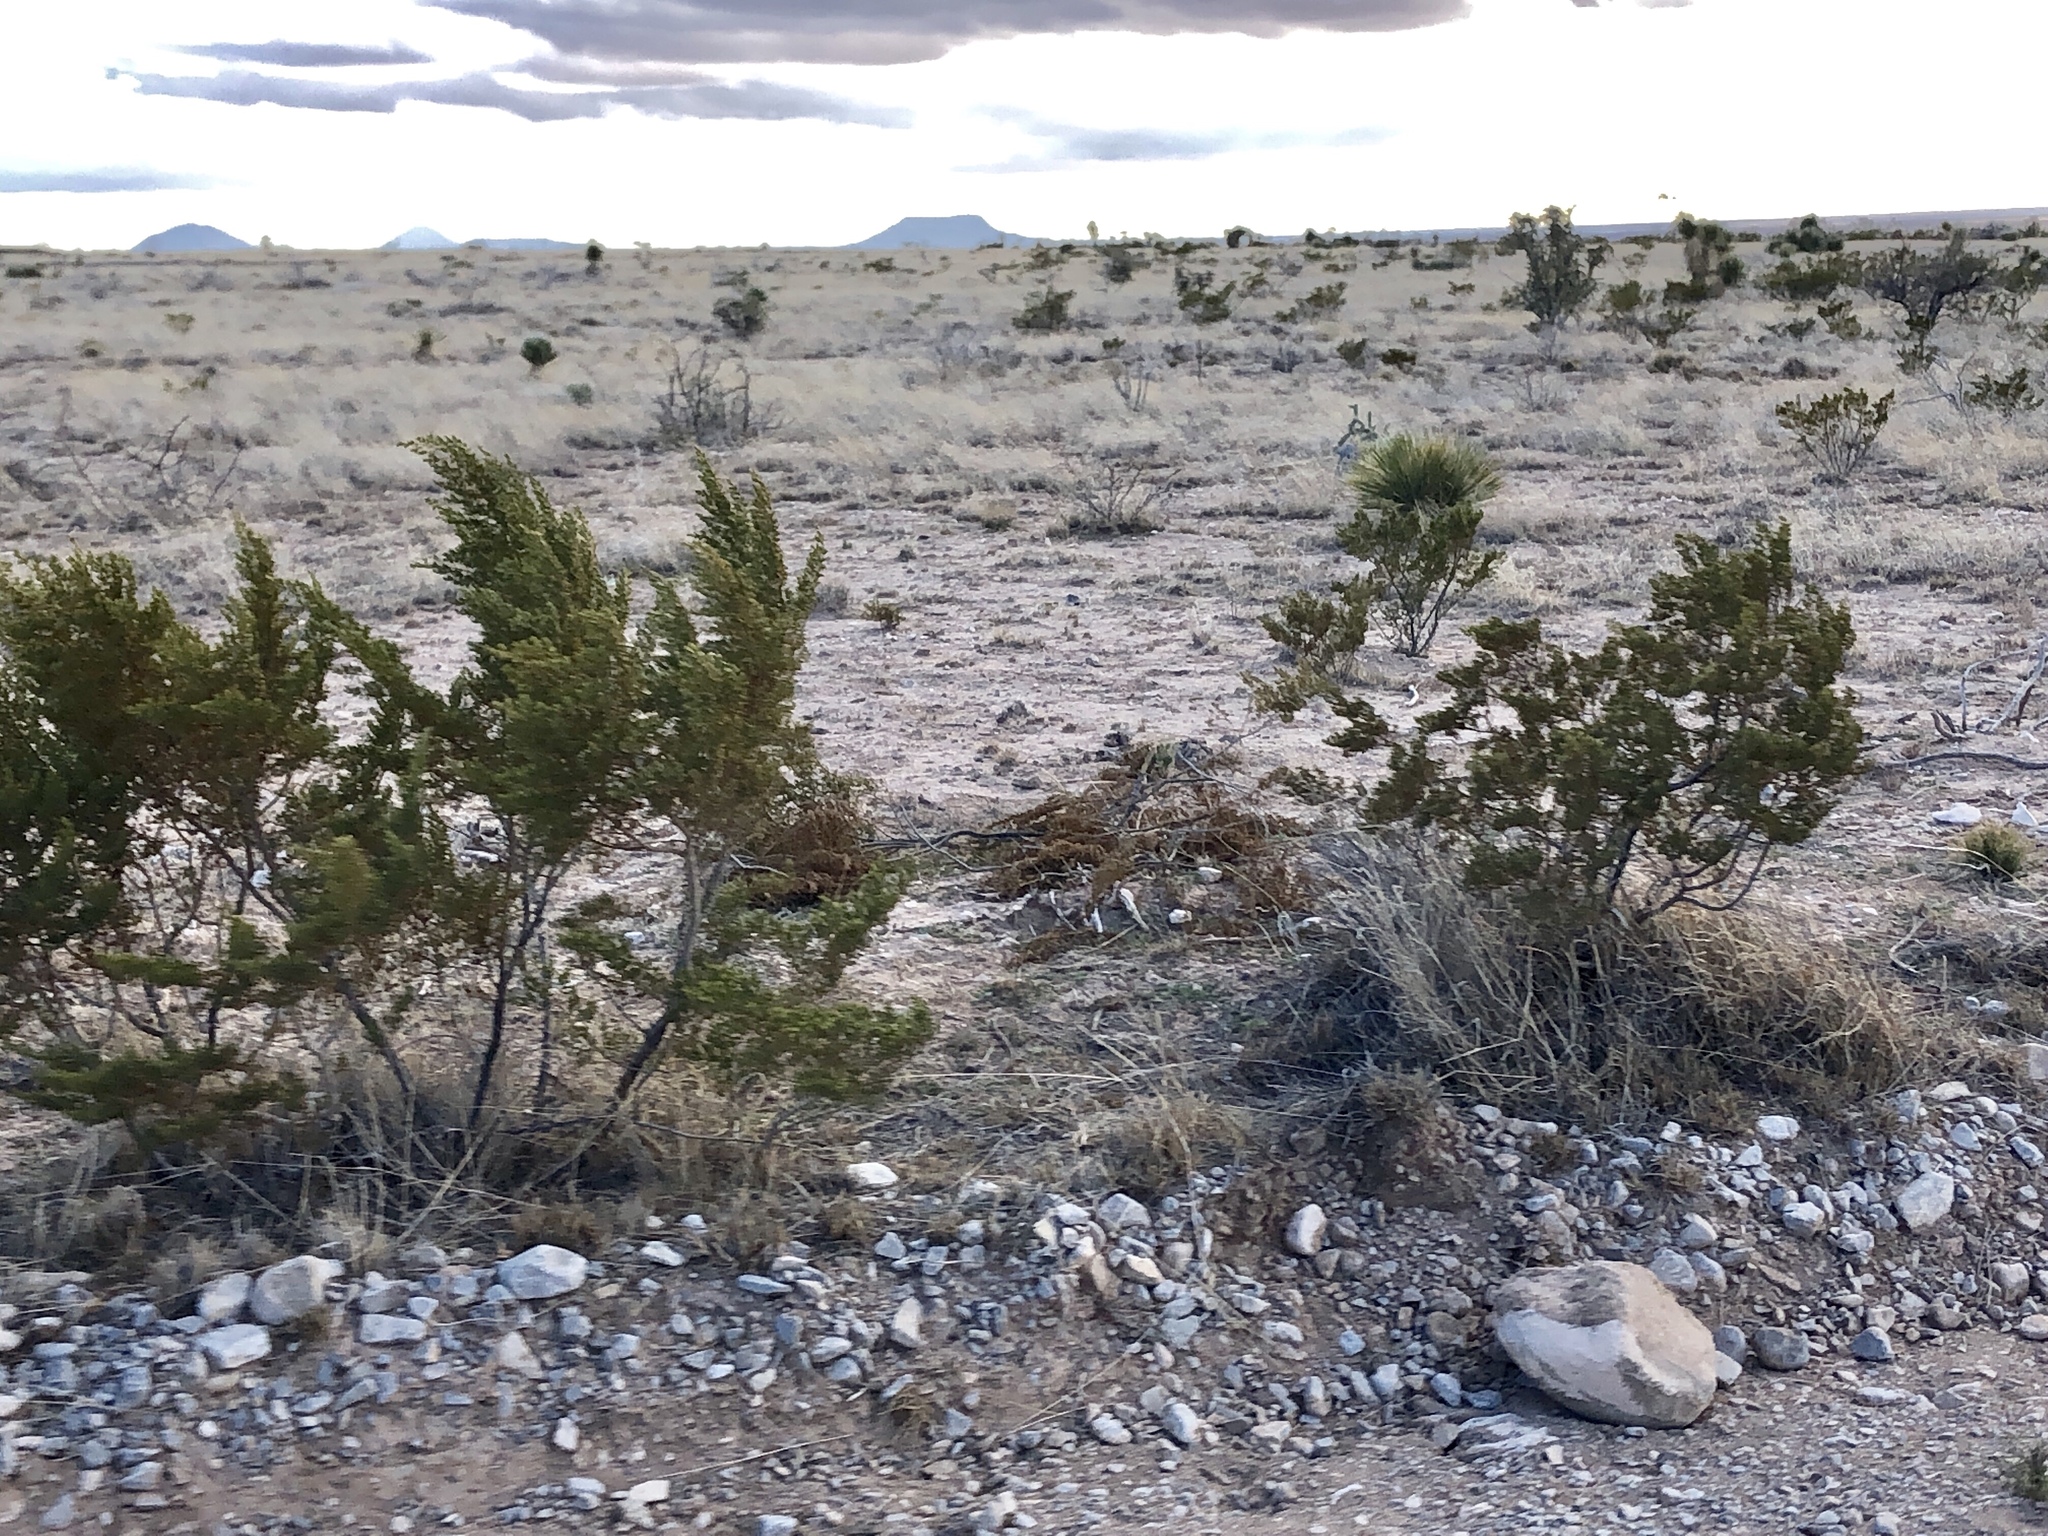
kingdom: Plantae
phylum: Tracheophyta
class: Magnoliopsida
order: Zygophyllales
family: Zygophyllaceae
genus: Larrea
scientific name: Larrea tridentata
